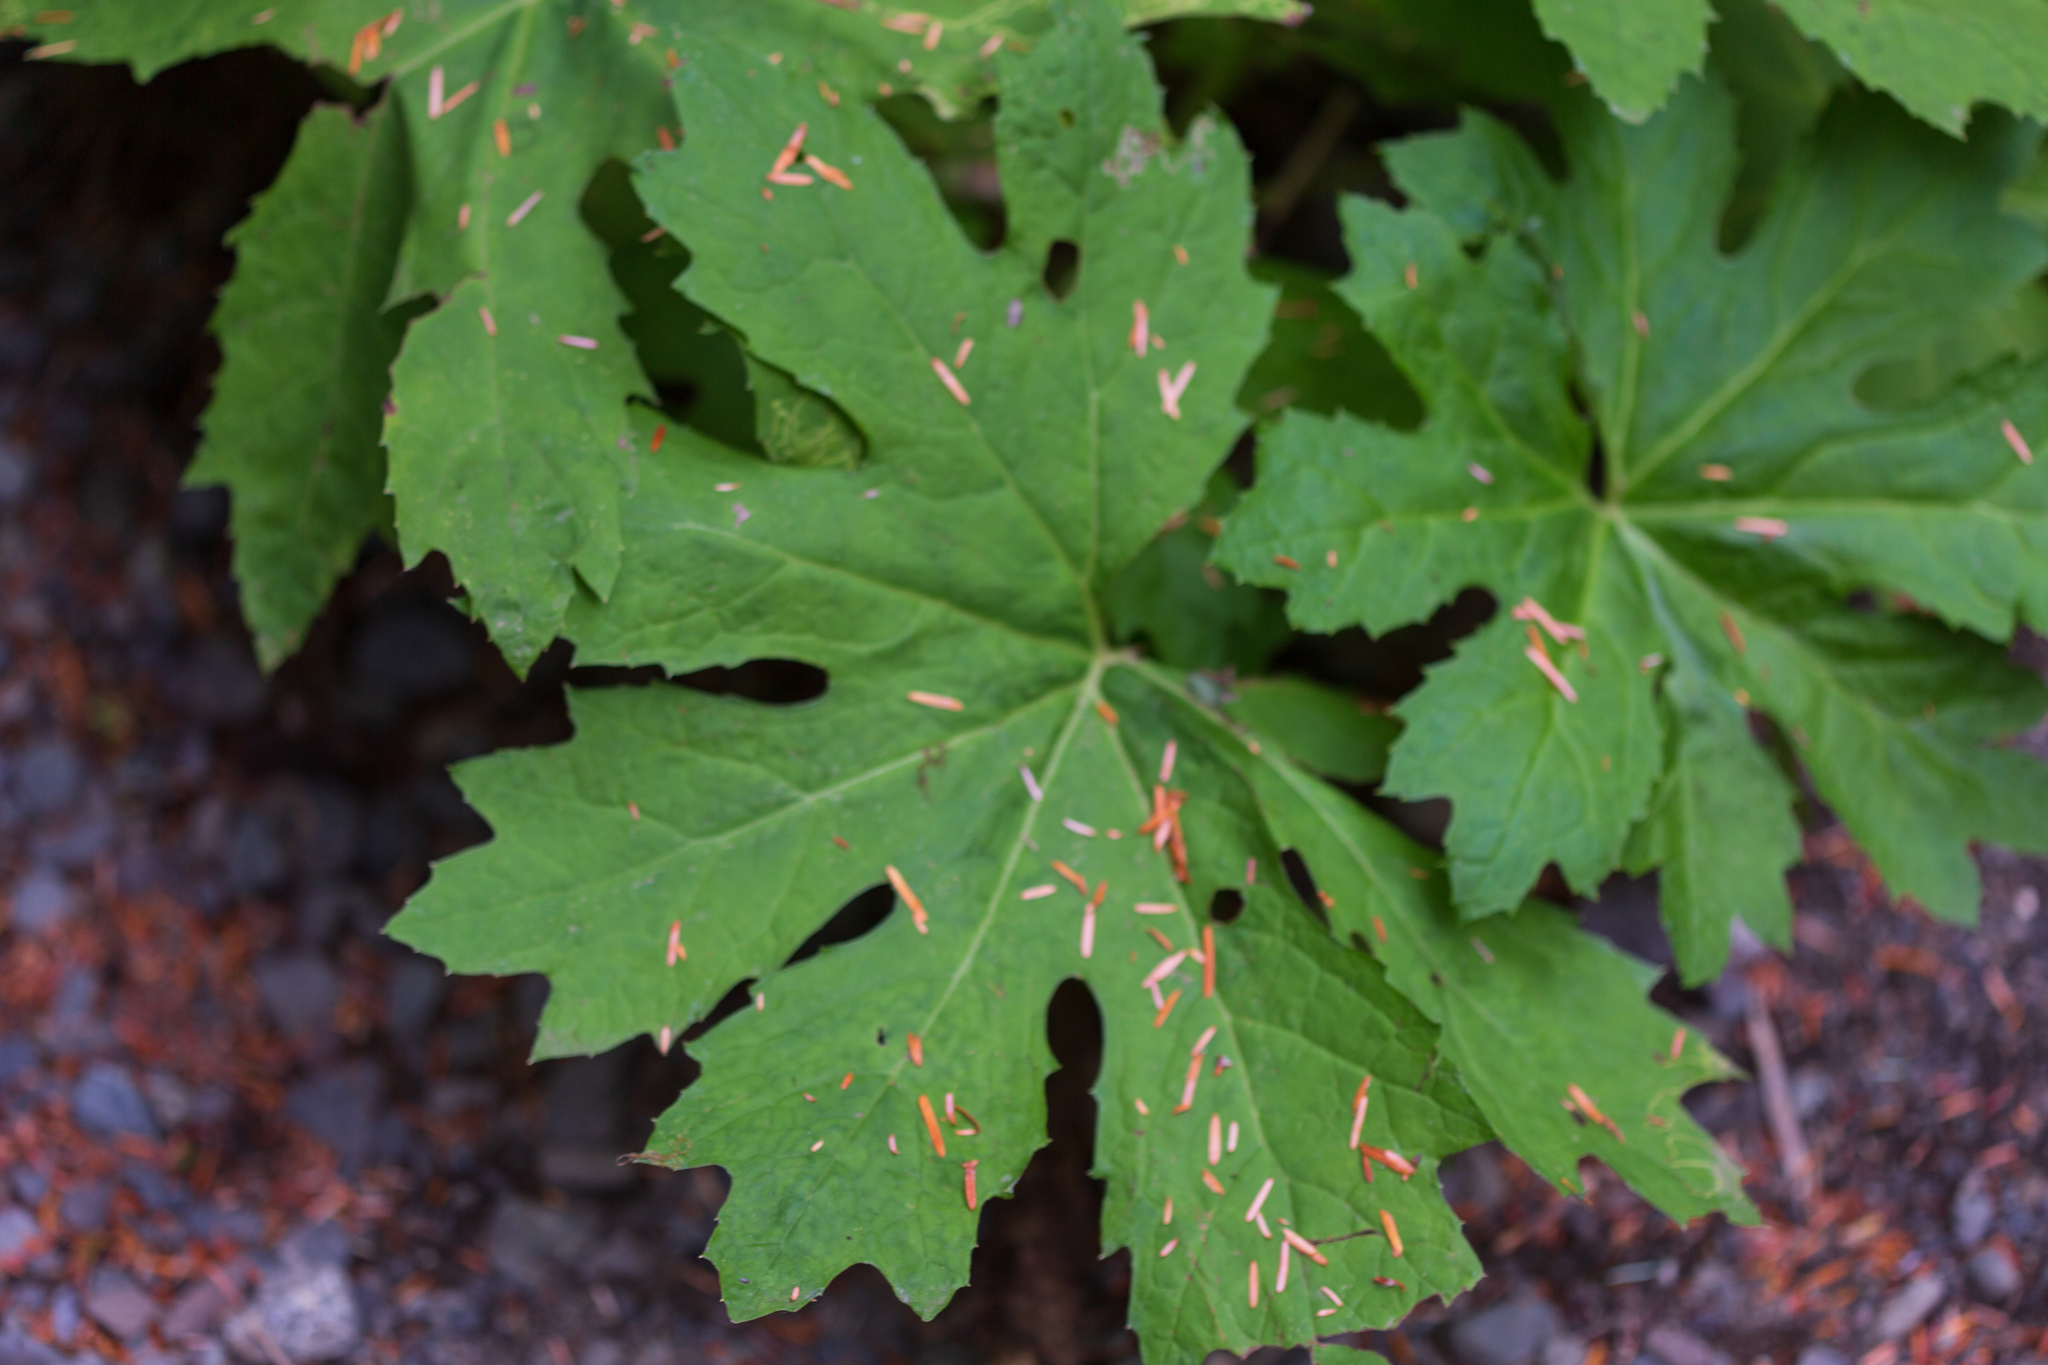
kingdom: Plantae
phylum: Tracheophyta
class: Magnoliopsida
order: Asterales
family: Asteraceae
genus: Petasites
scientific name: Petasites frigidus
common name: Arctic butterbur
